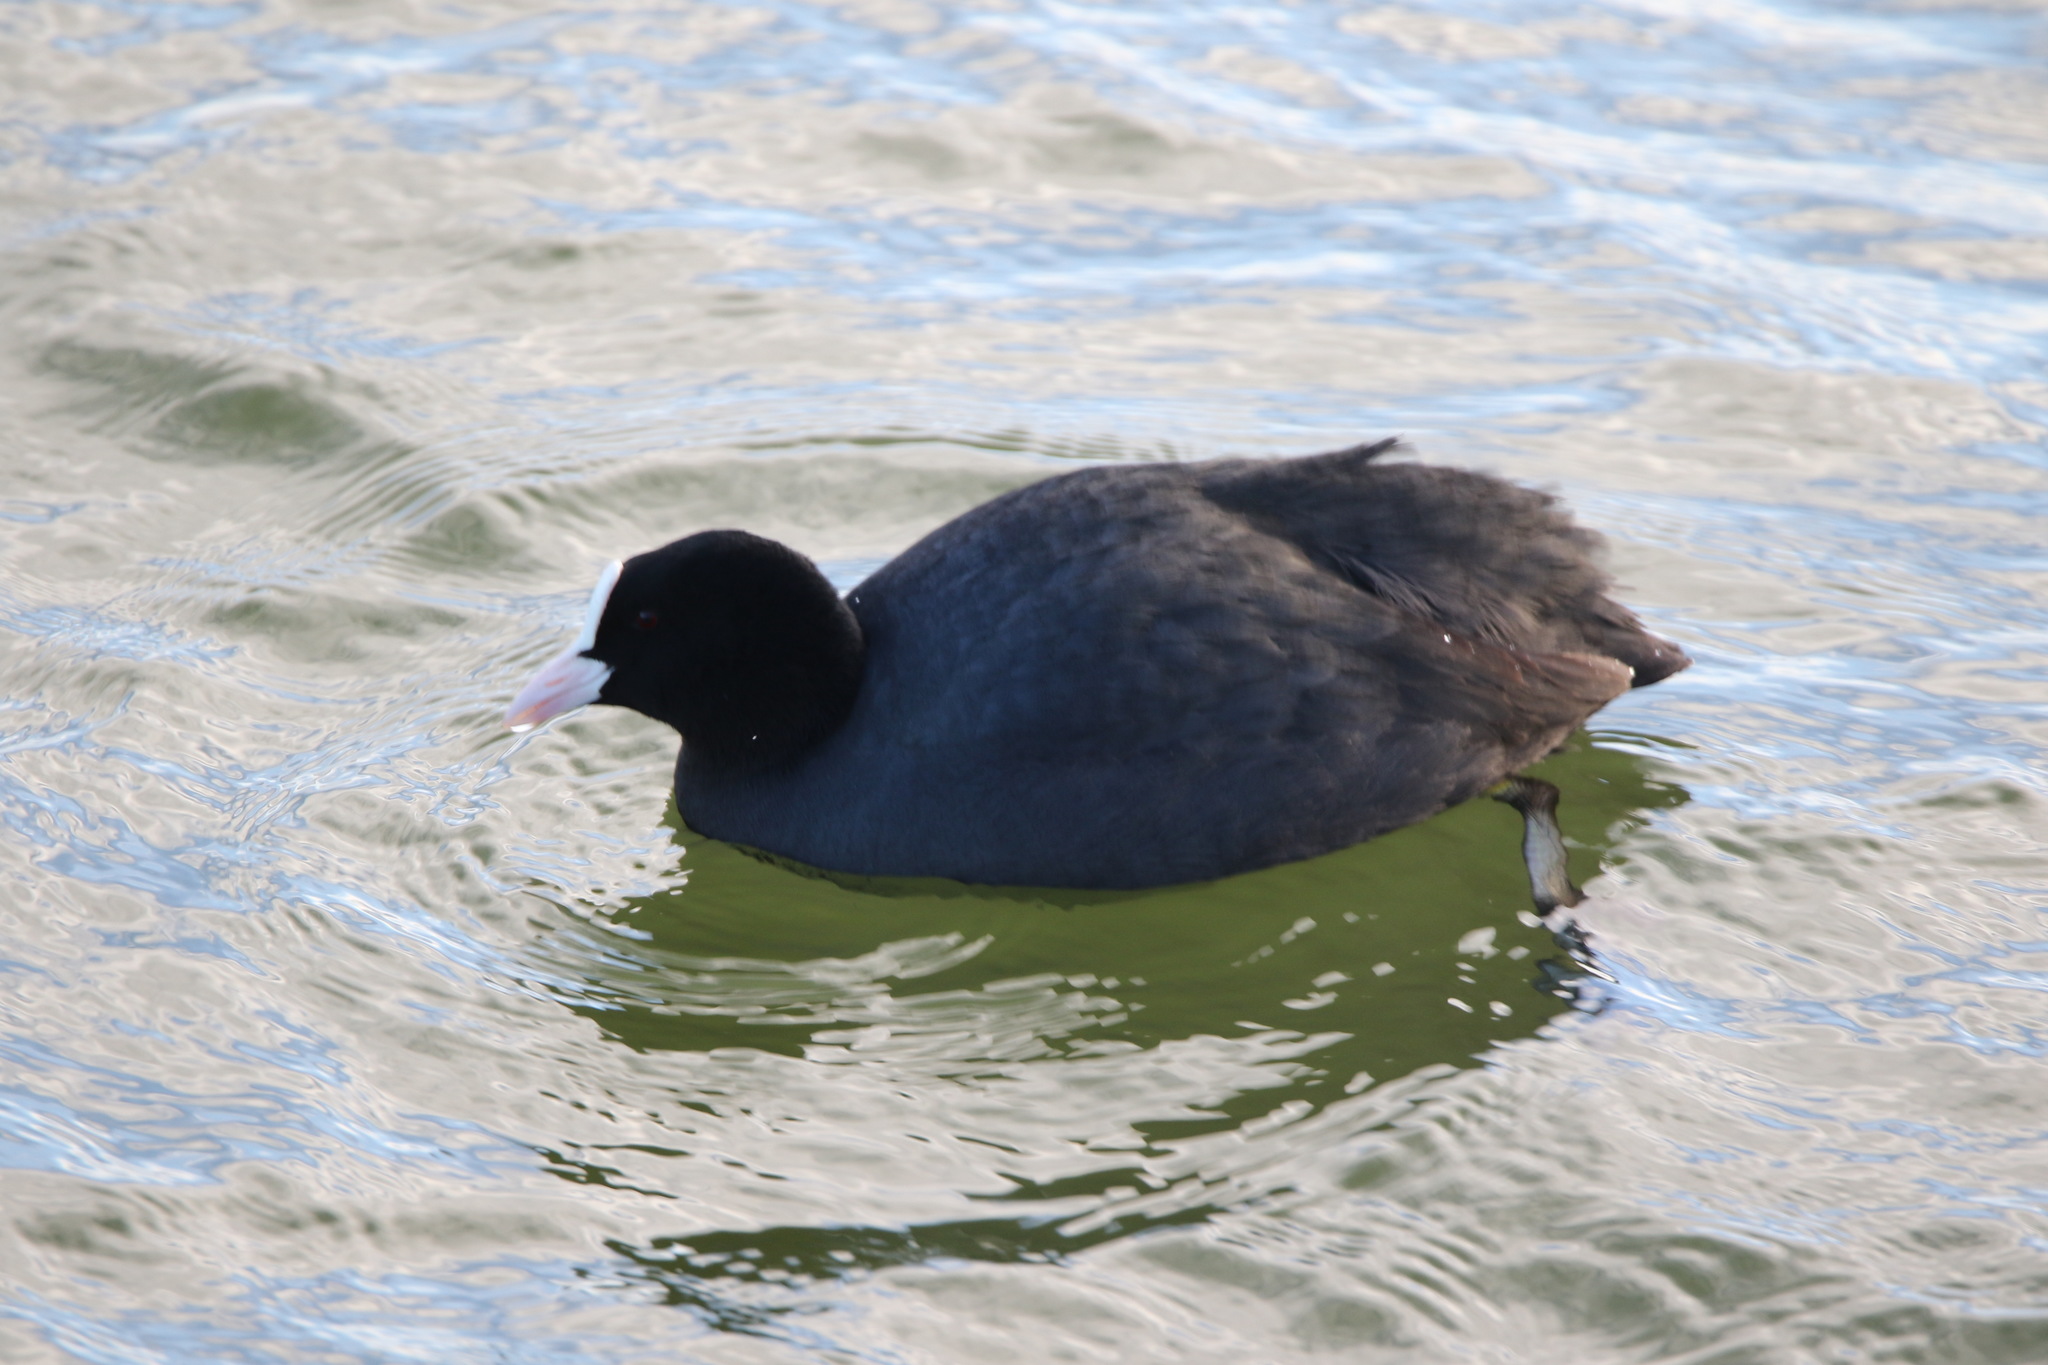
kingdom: Animalia
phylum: Chordata
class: Aves
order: Gruiformes
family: Rallidae
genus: Fulica
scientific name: Fulica atra
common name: Eurasian coot
